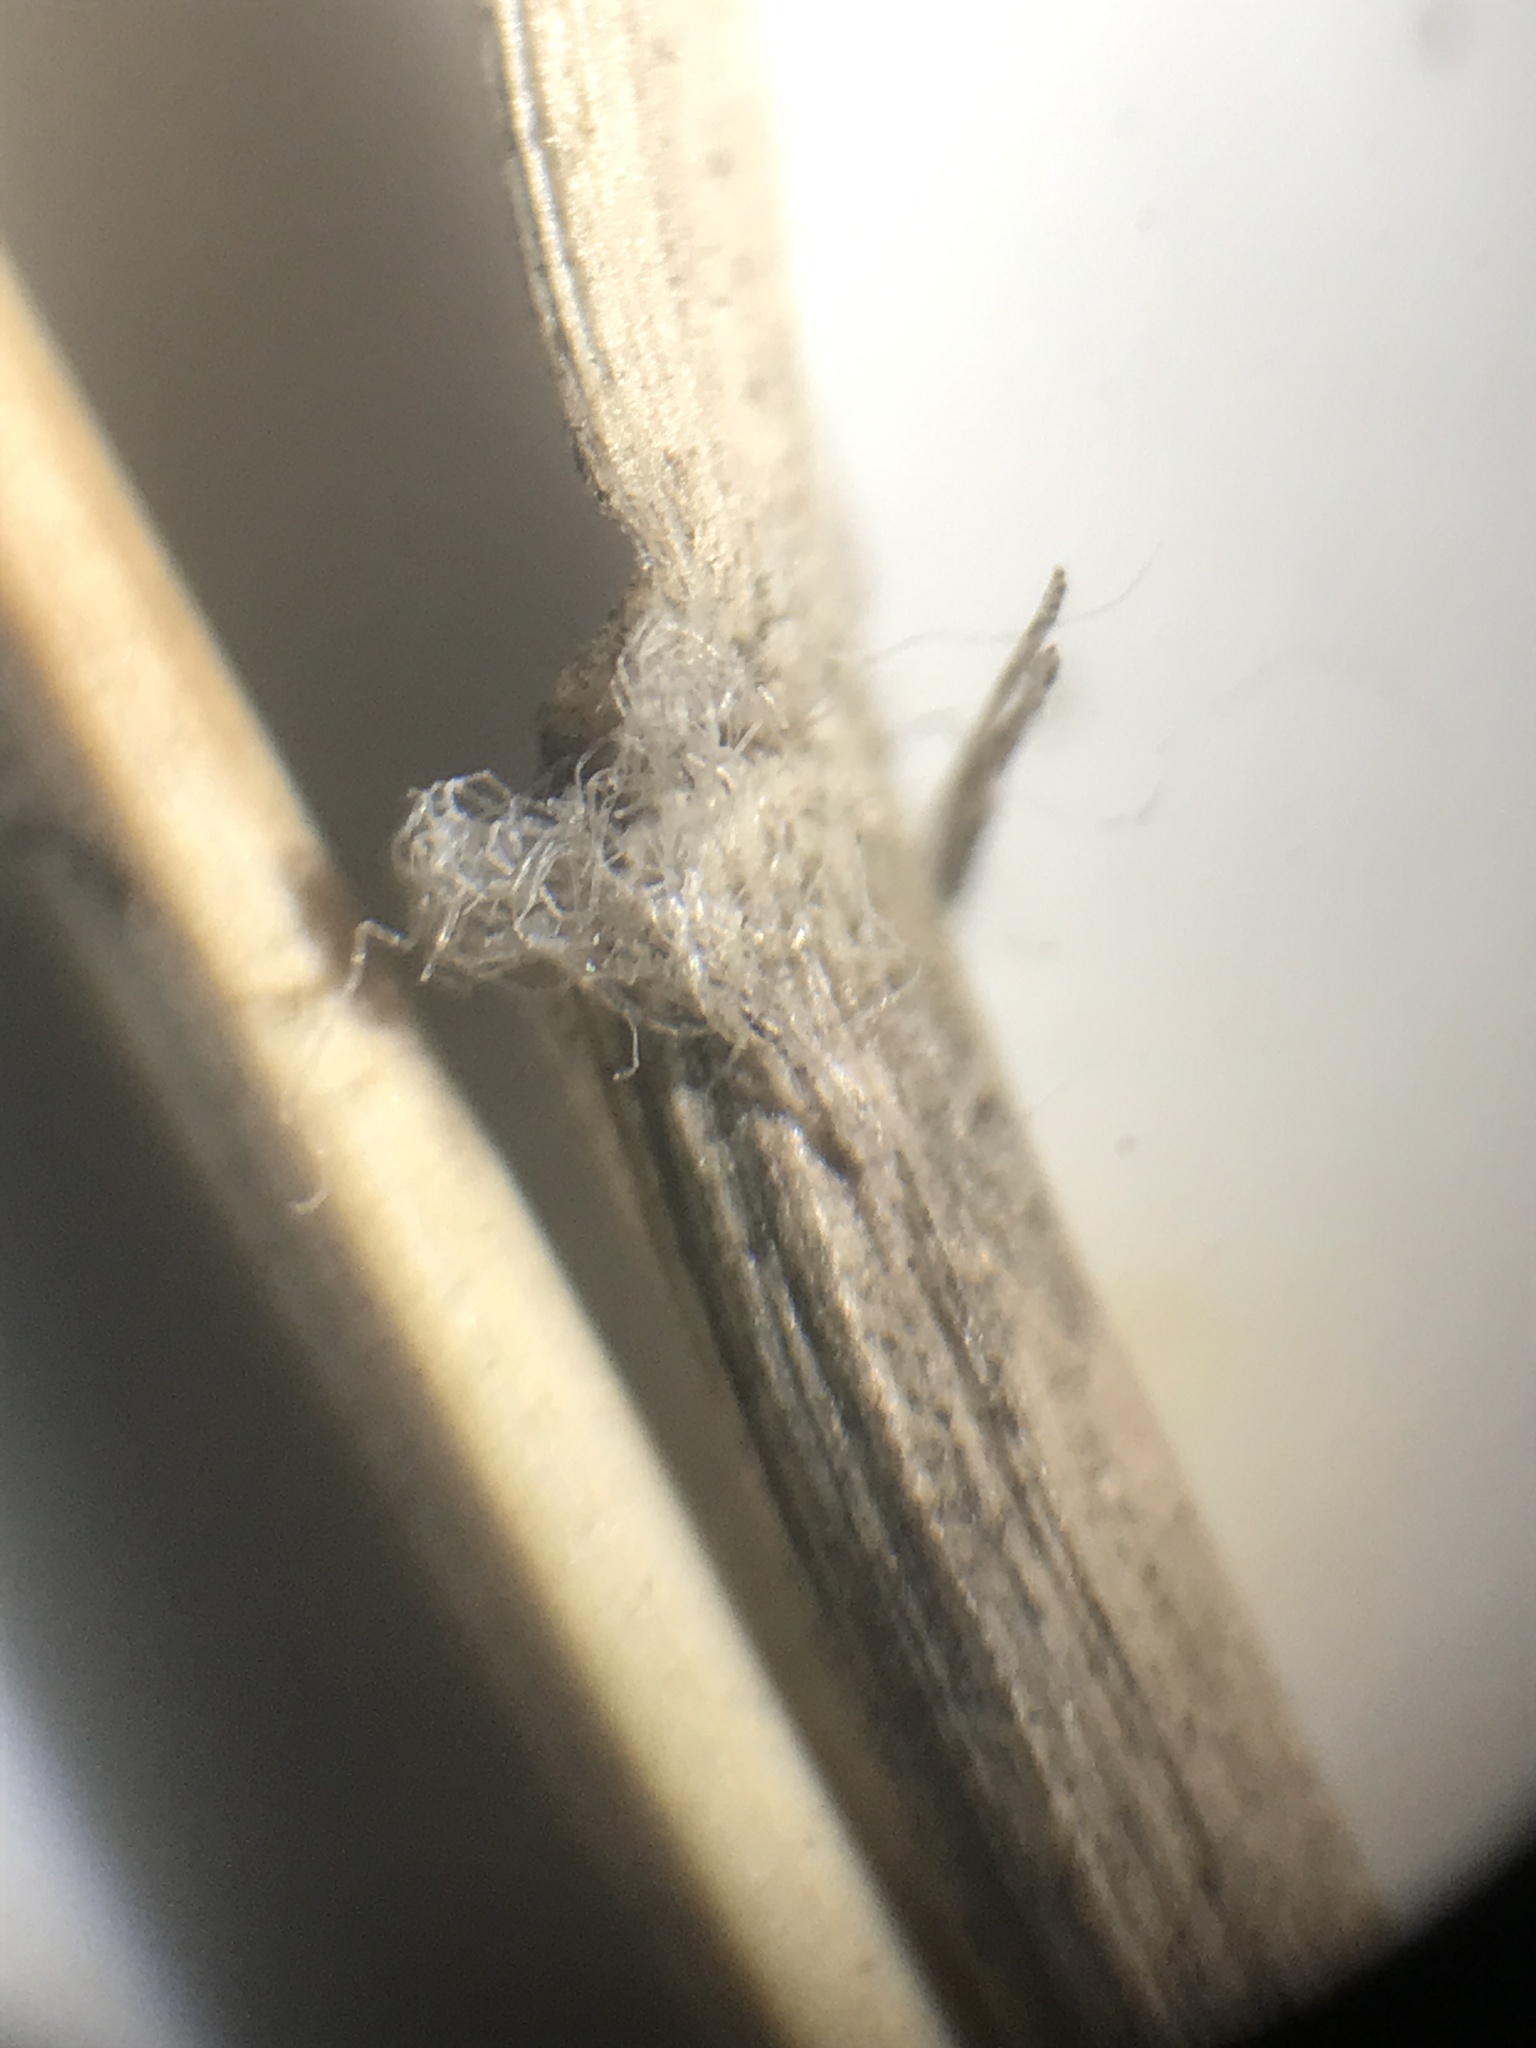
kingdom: Plantae
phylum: Tracheophyta
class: Liliopsida
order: Poales
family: Poaceae
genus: Sporobolus
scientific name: Sporobolus cryptandrus
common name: Sand dropseed
